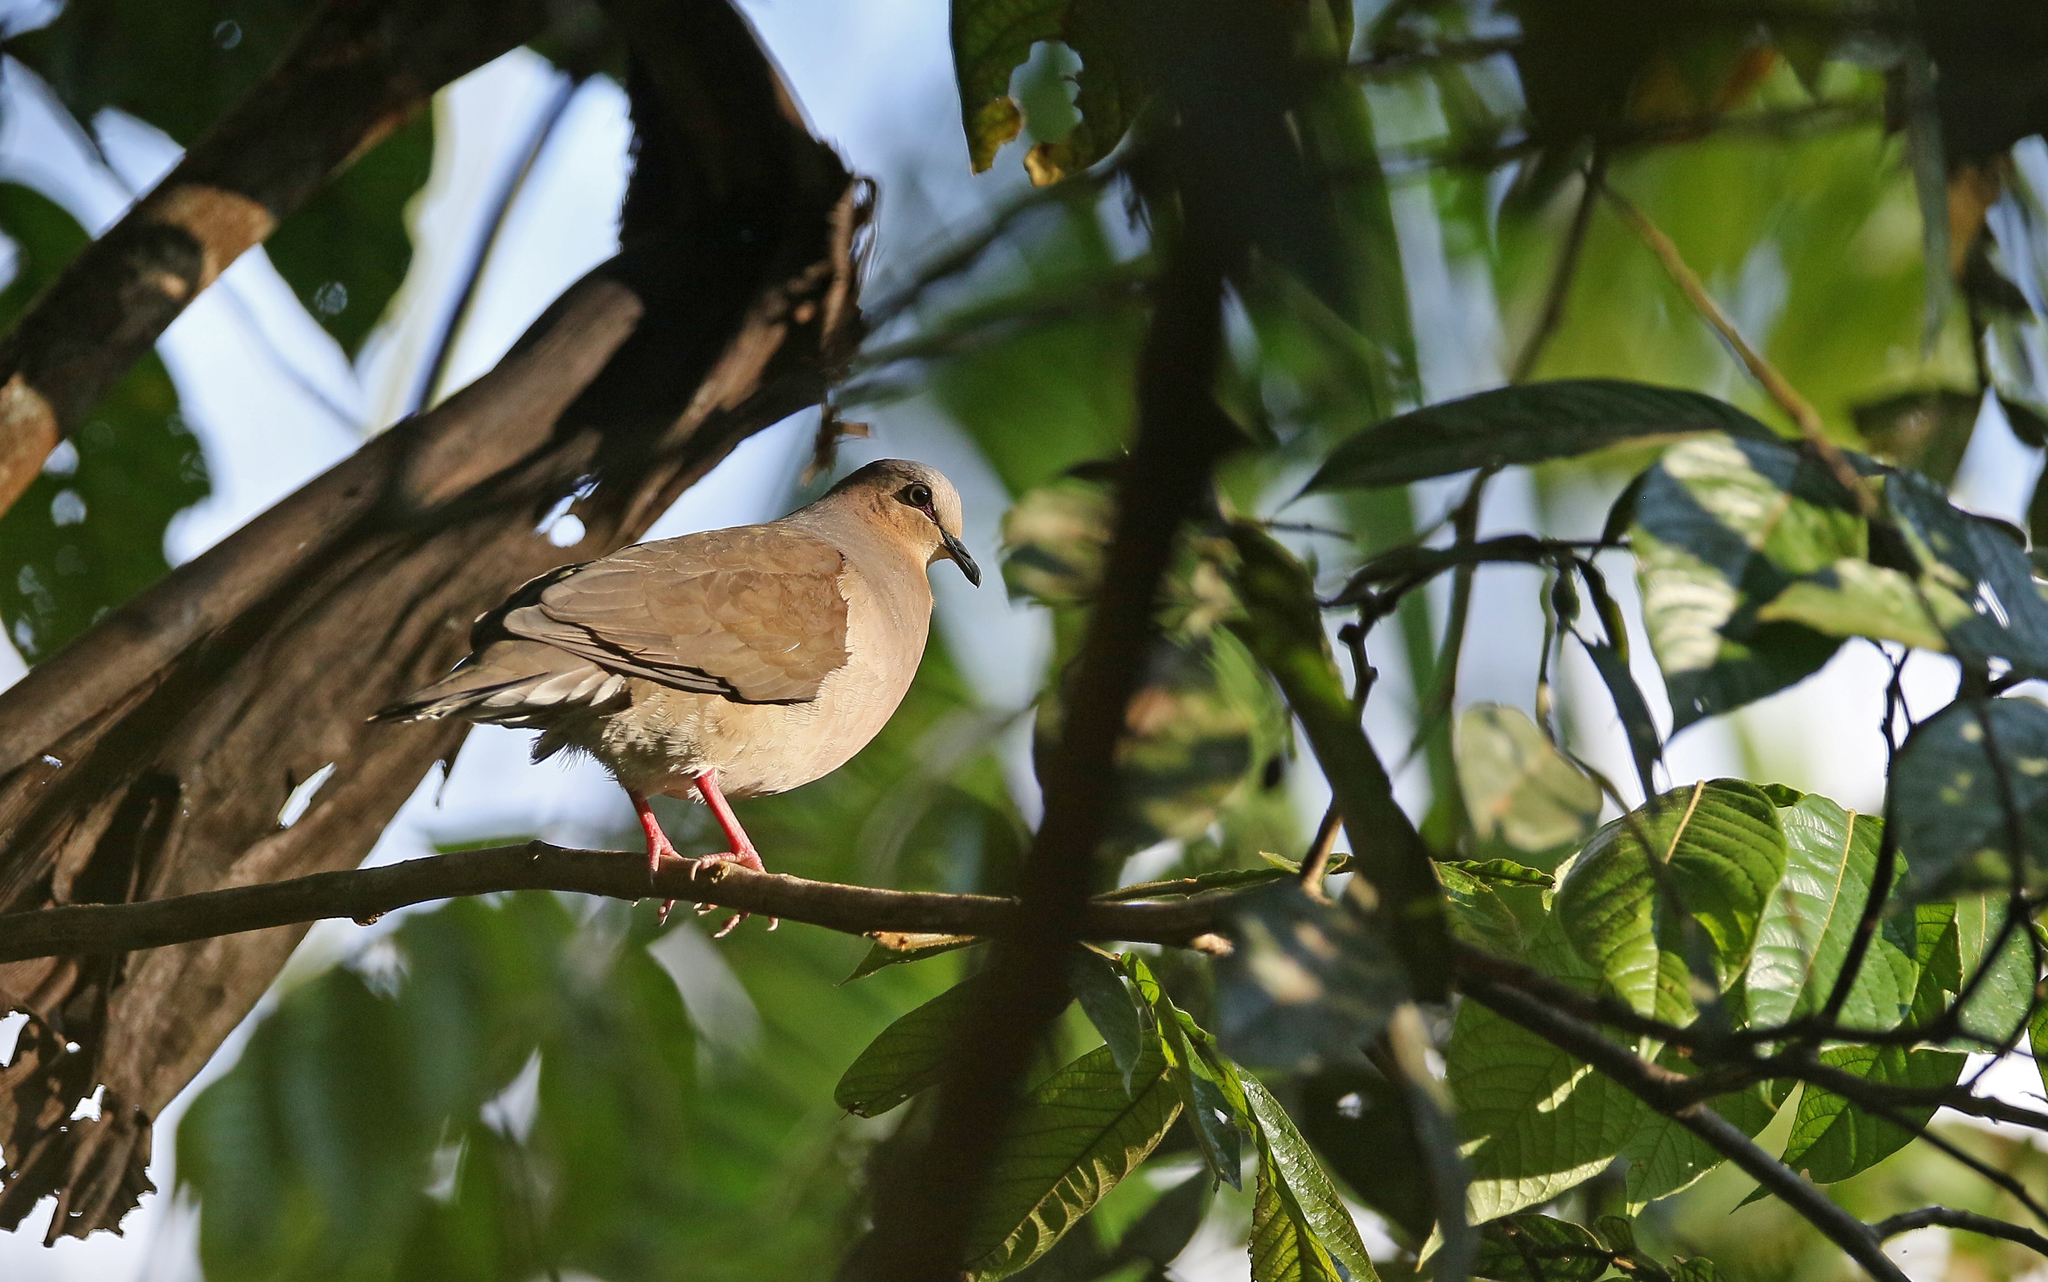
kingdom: Animalia
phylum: Chordata
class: Aves
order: Columbiformes
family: Columbidae
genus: Leptotila
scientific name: Leptotila rufaxilla
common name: Grey-fronted dove
